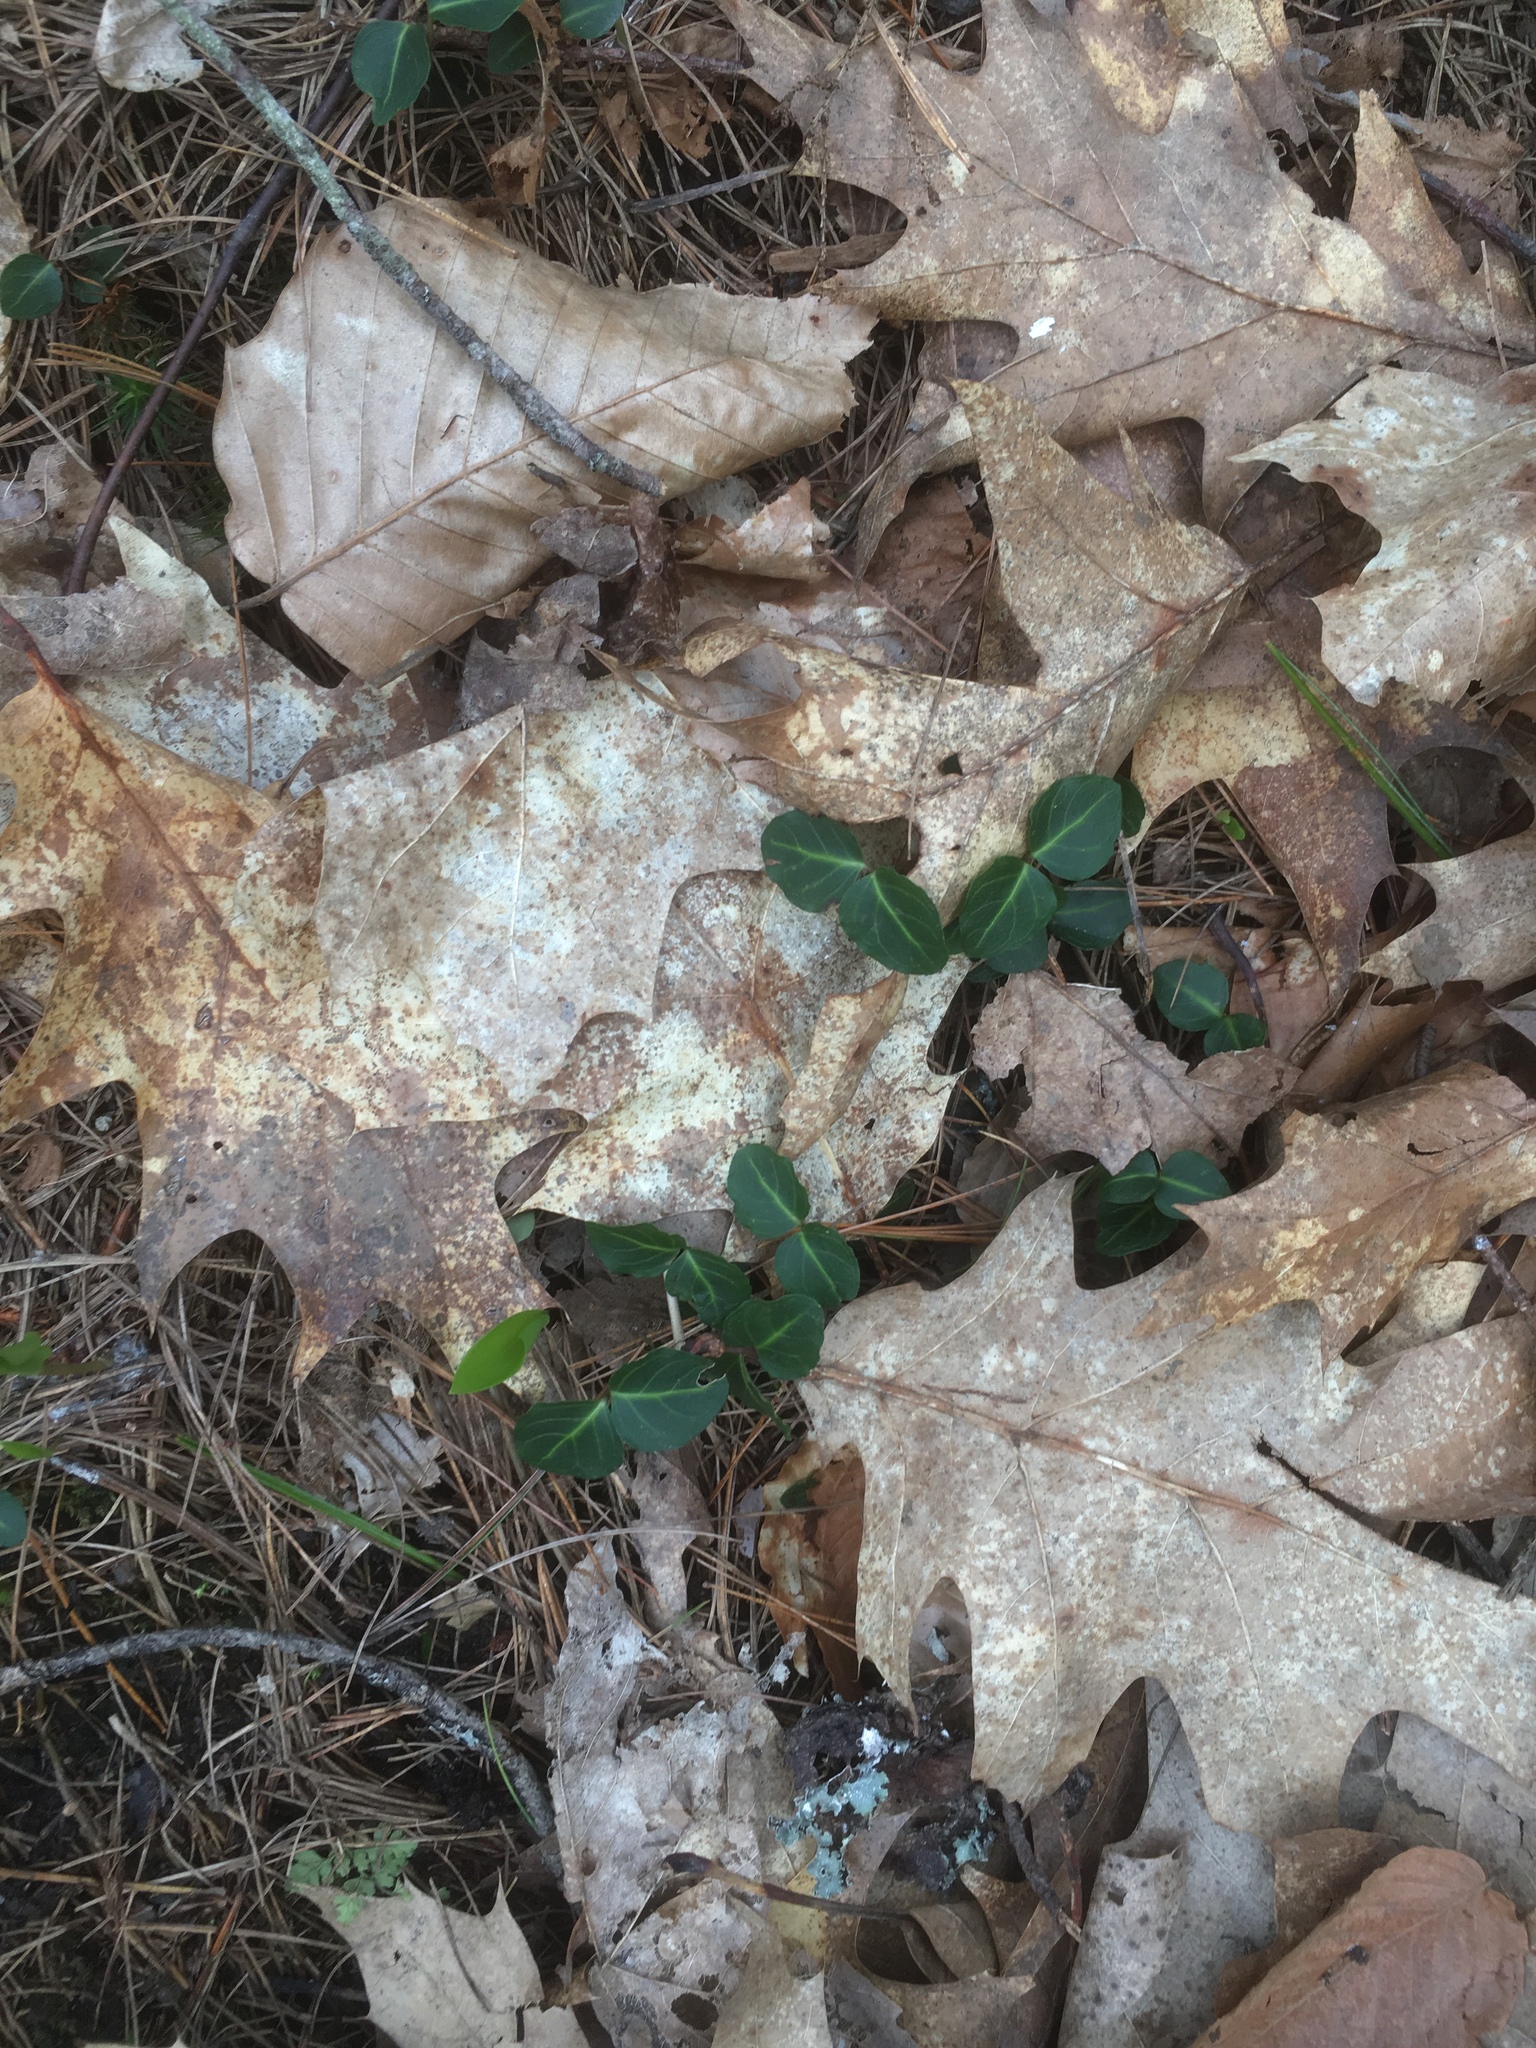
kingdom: Plantae
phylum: Tracheophyta
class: Magnoliopsida
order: Gentianales
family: Rubiaceae
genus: Mitchella
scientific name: Mitchella repens
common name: Partridge-berry
